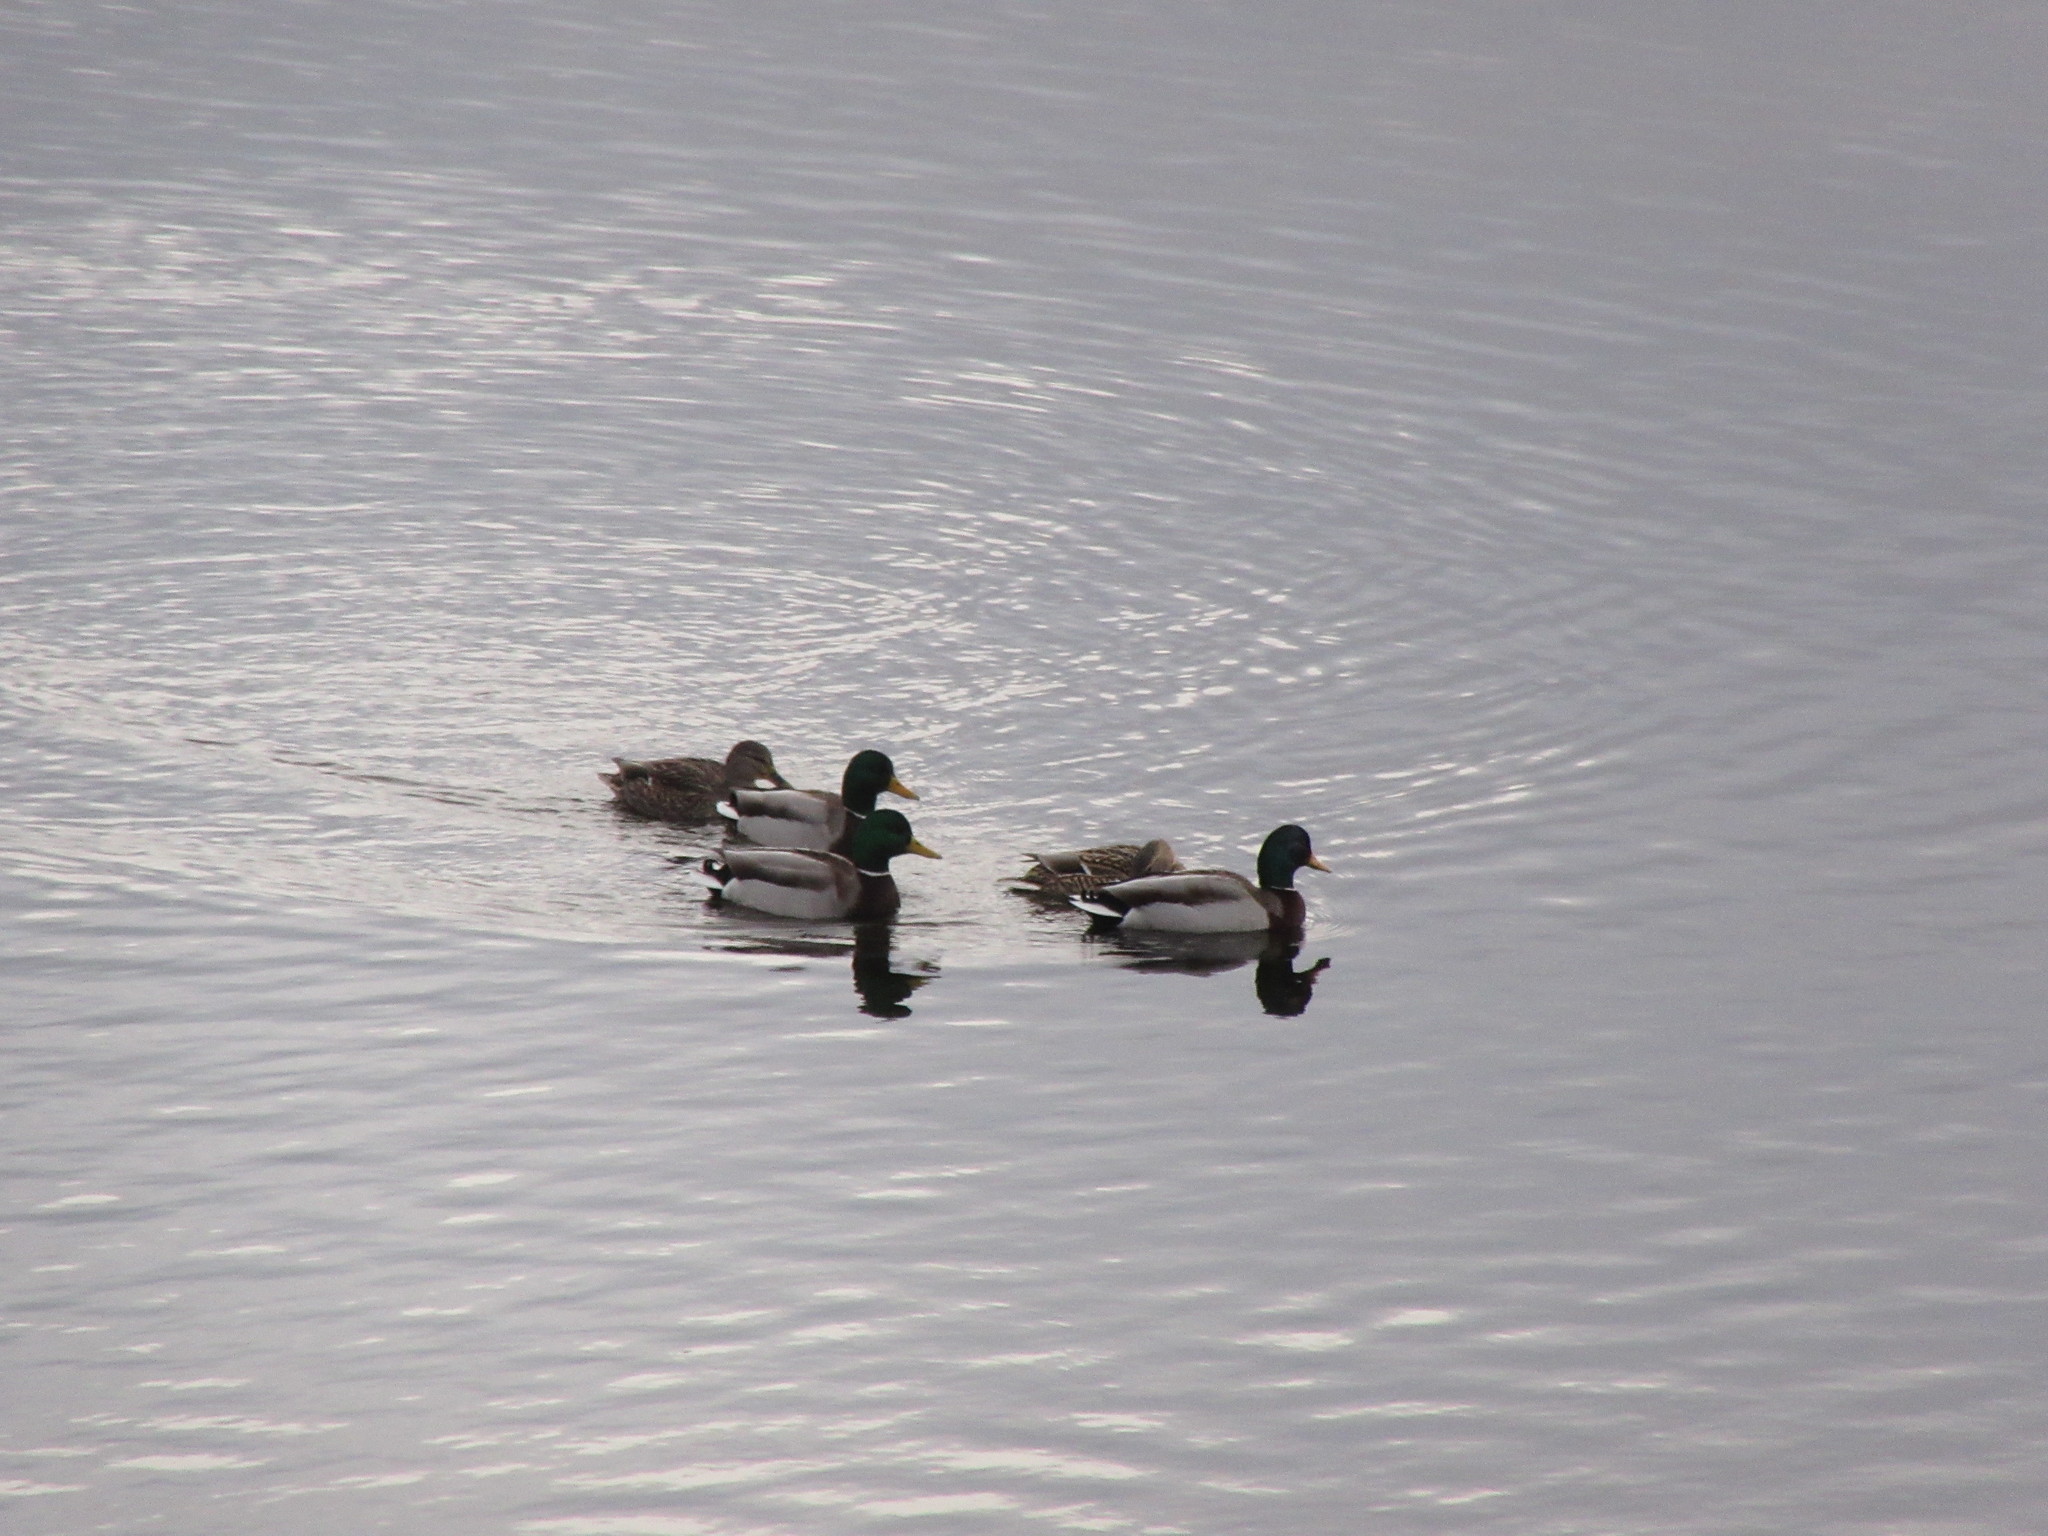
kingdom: Animalia
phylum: Chordata
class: Aves
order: Anseriformes
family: Anatidae
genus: Anas
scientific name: Anas platyrhynchos
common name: Mallard
